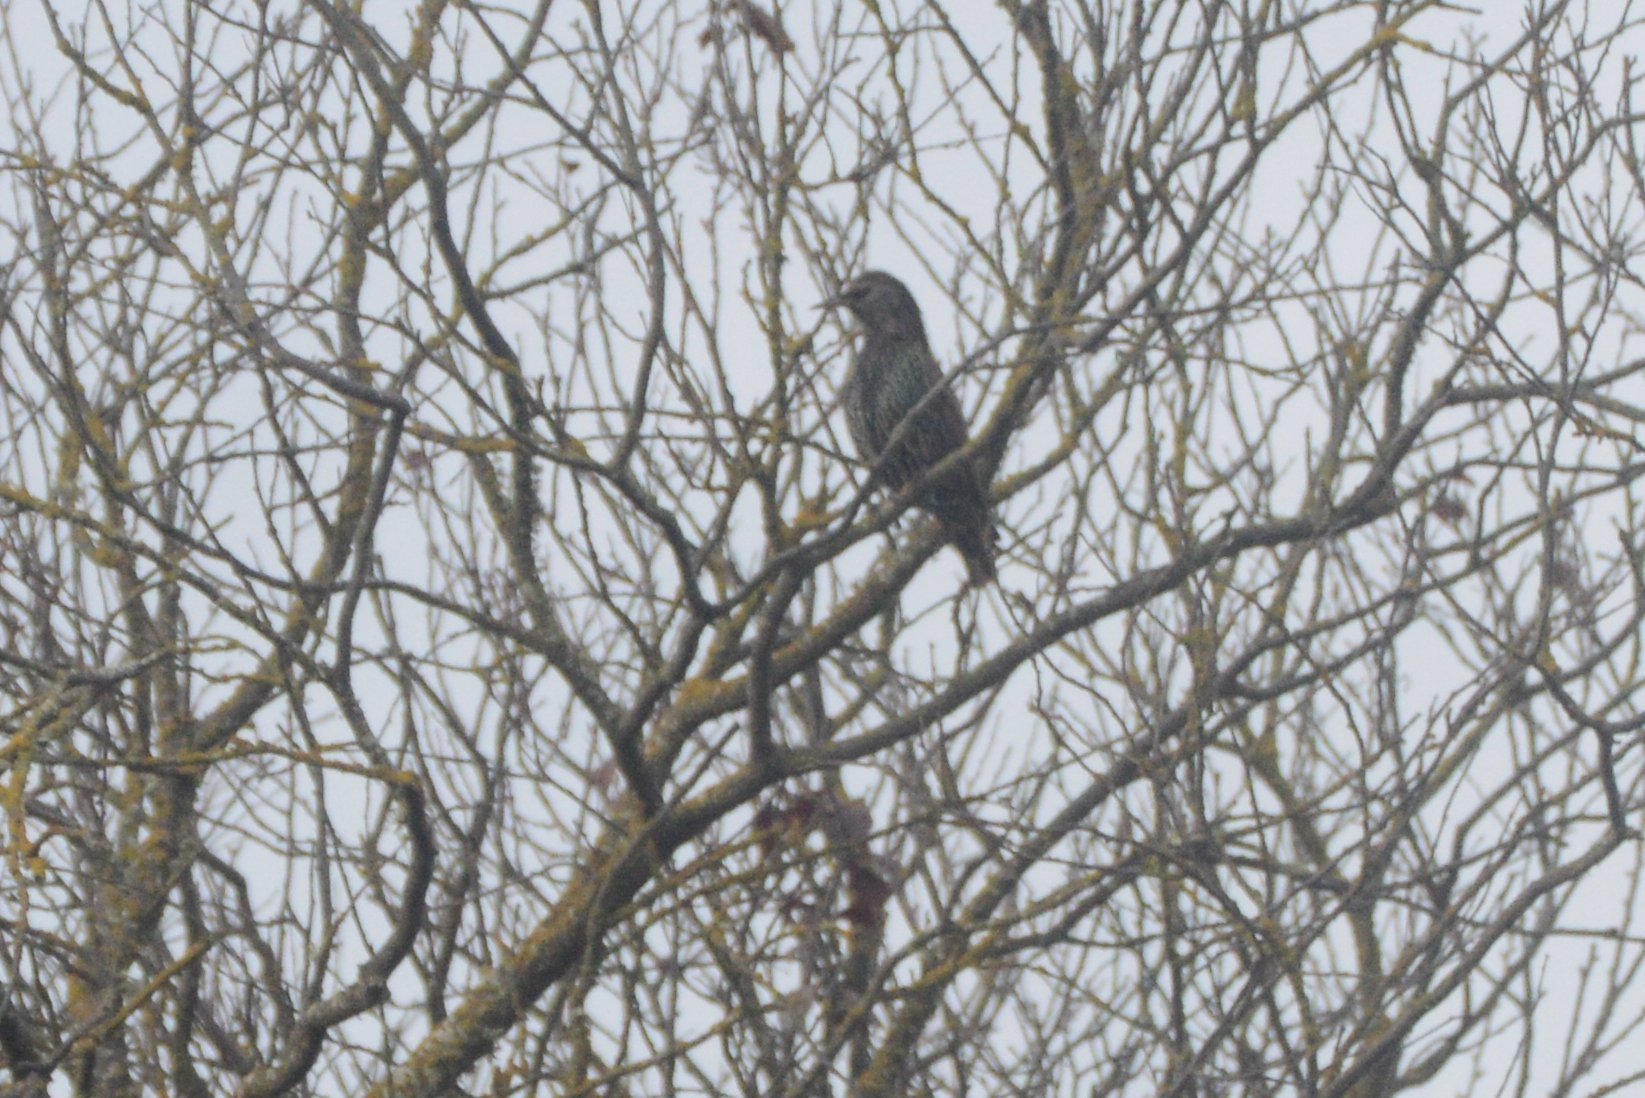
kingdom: Animalia
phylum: Chordata
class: Aves
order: Passeriformes
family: Sturnidae
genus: Sturnus
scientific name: Sturnus vulgaris
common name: Common starling
